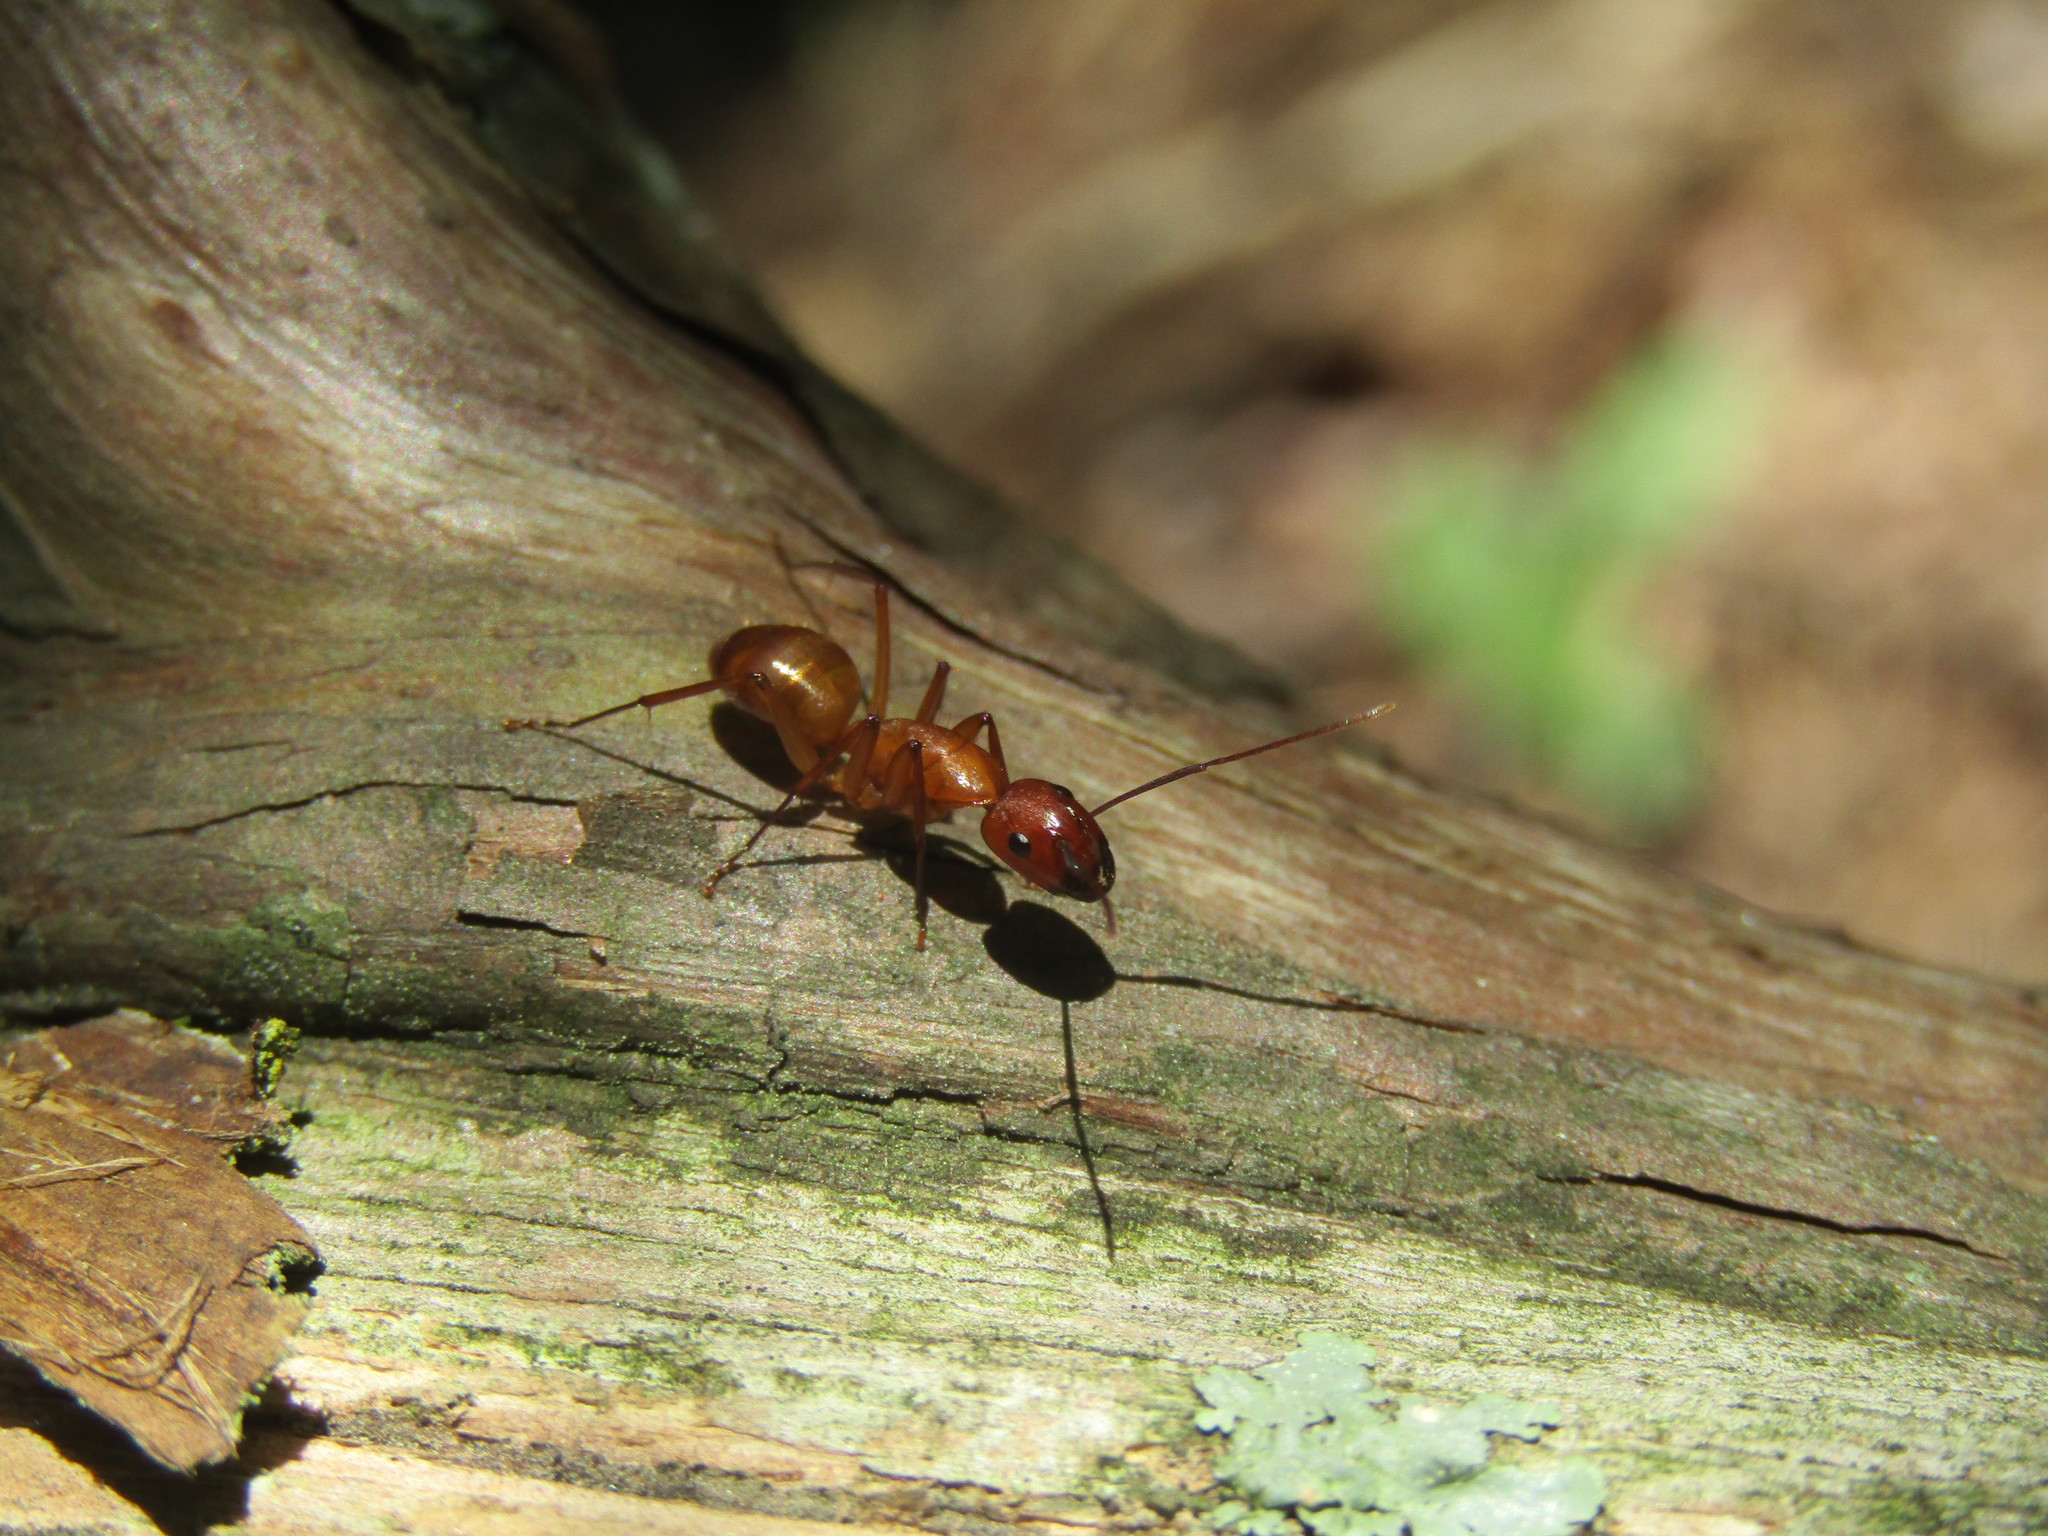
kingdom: Animalia
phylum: Arthropoda
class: Insecta
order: Hymenoptera
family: Formicidae
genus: Camponotus
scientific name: Camponotus castaneus
